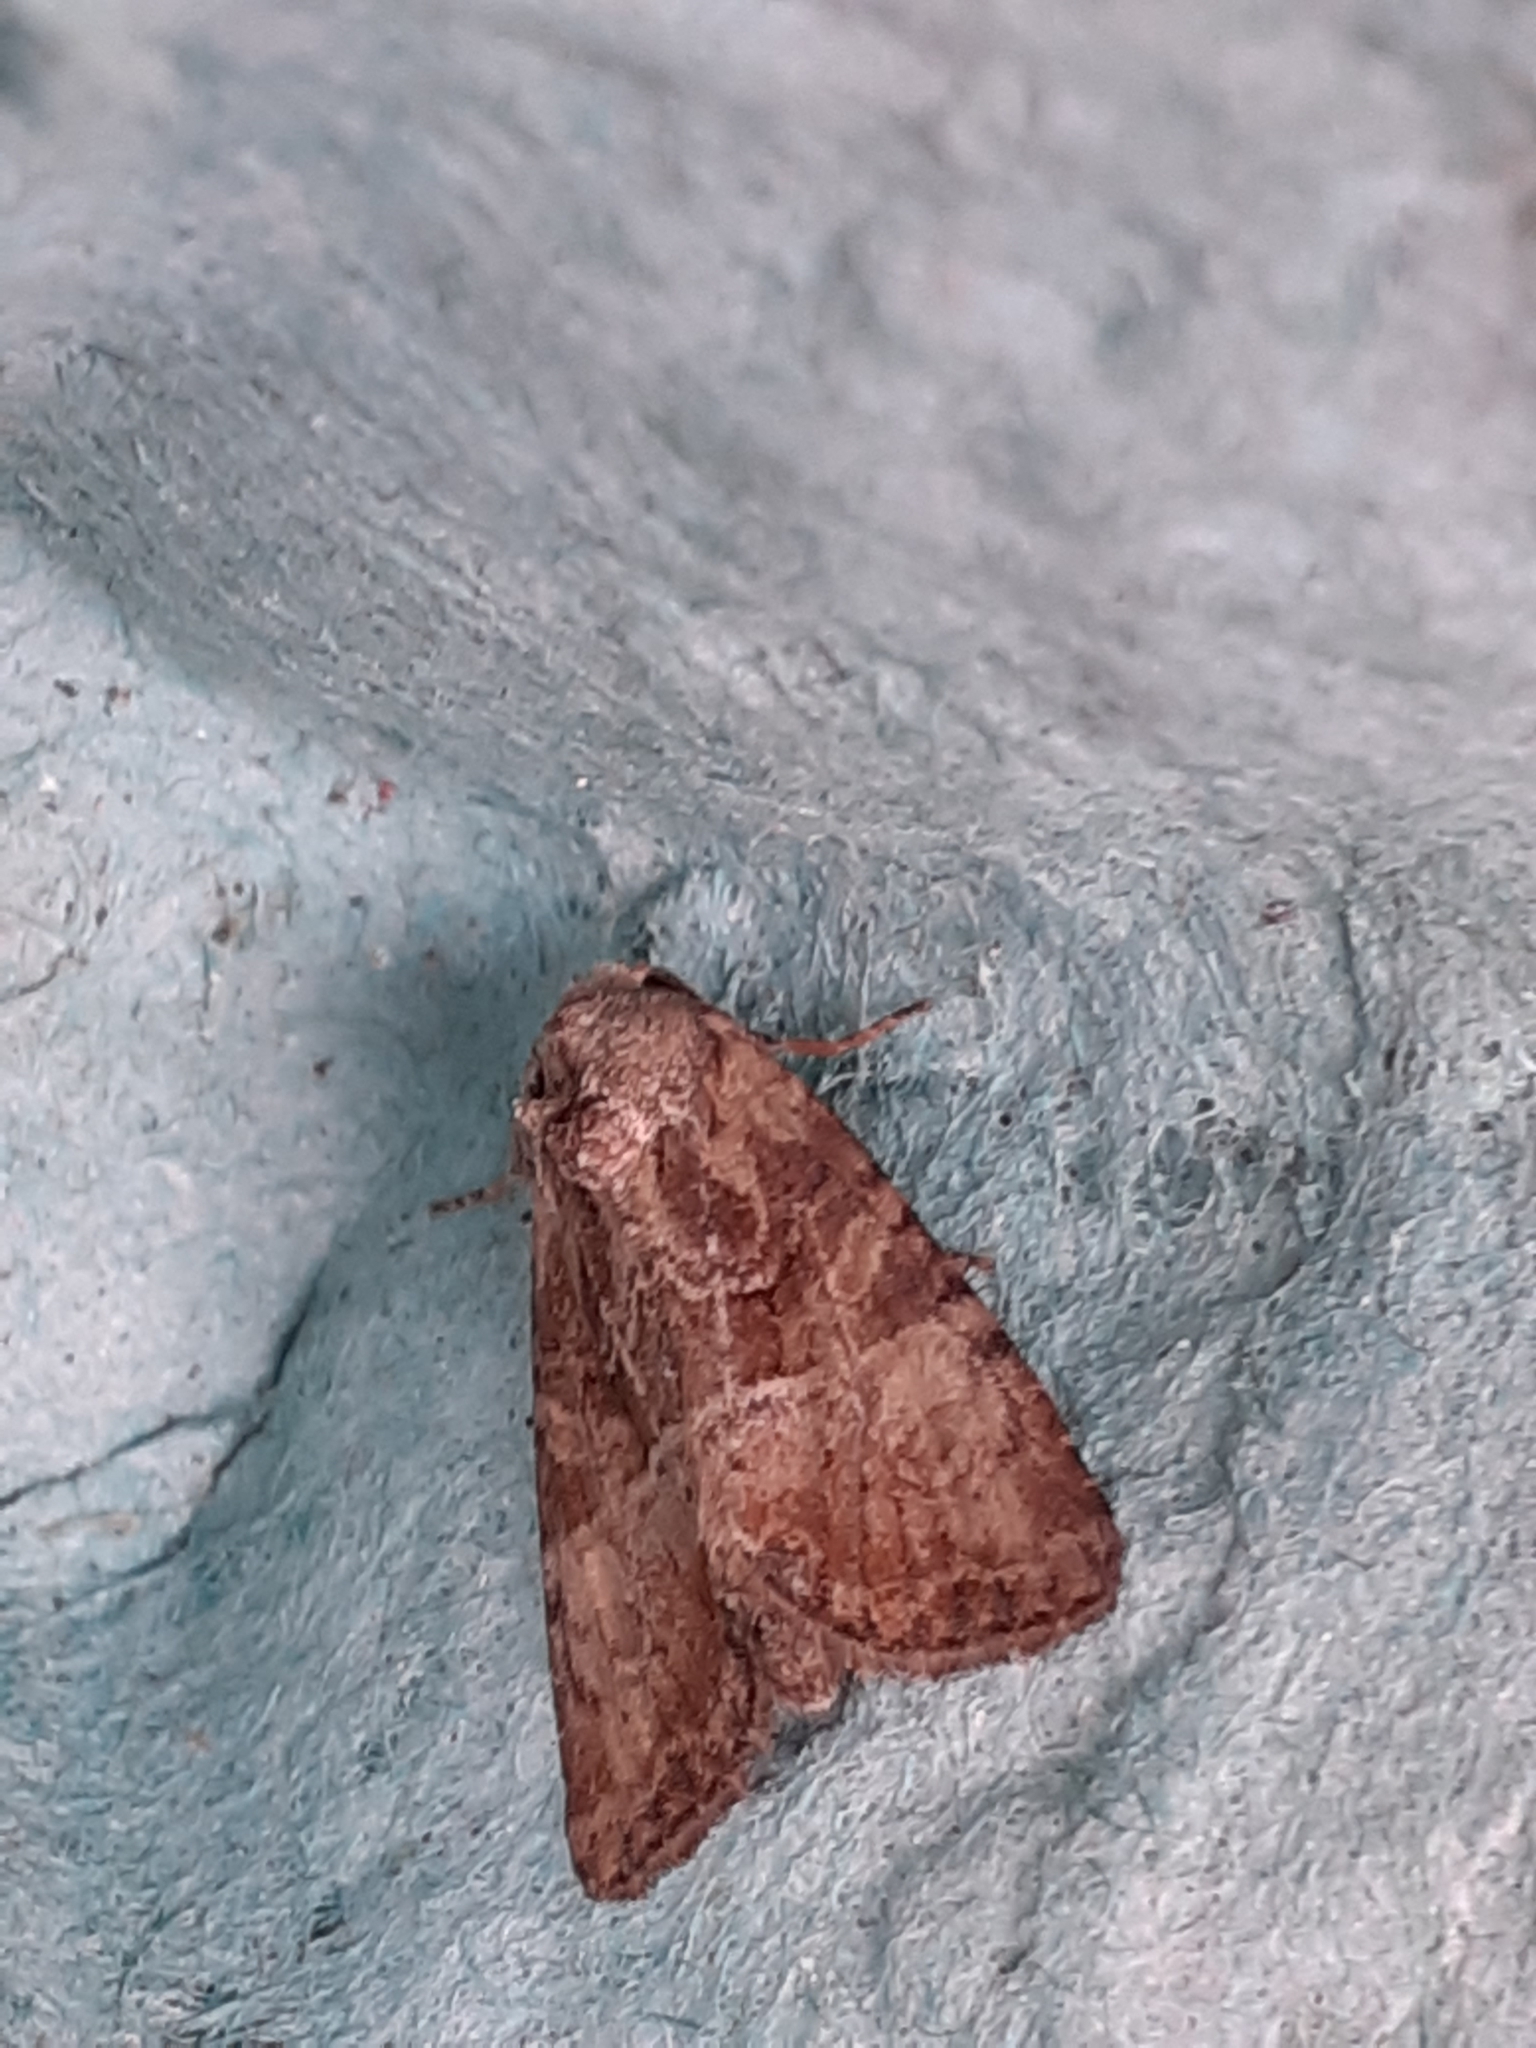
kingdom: Animalia
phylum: Arthropoda
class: Insecta
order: Lepidoptera
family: Noctuidae
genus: Mesoligia
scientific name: Mesoligia furuncula
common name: Cloaked minor
